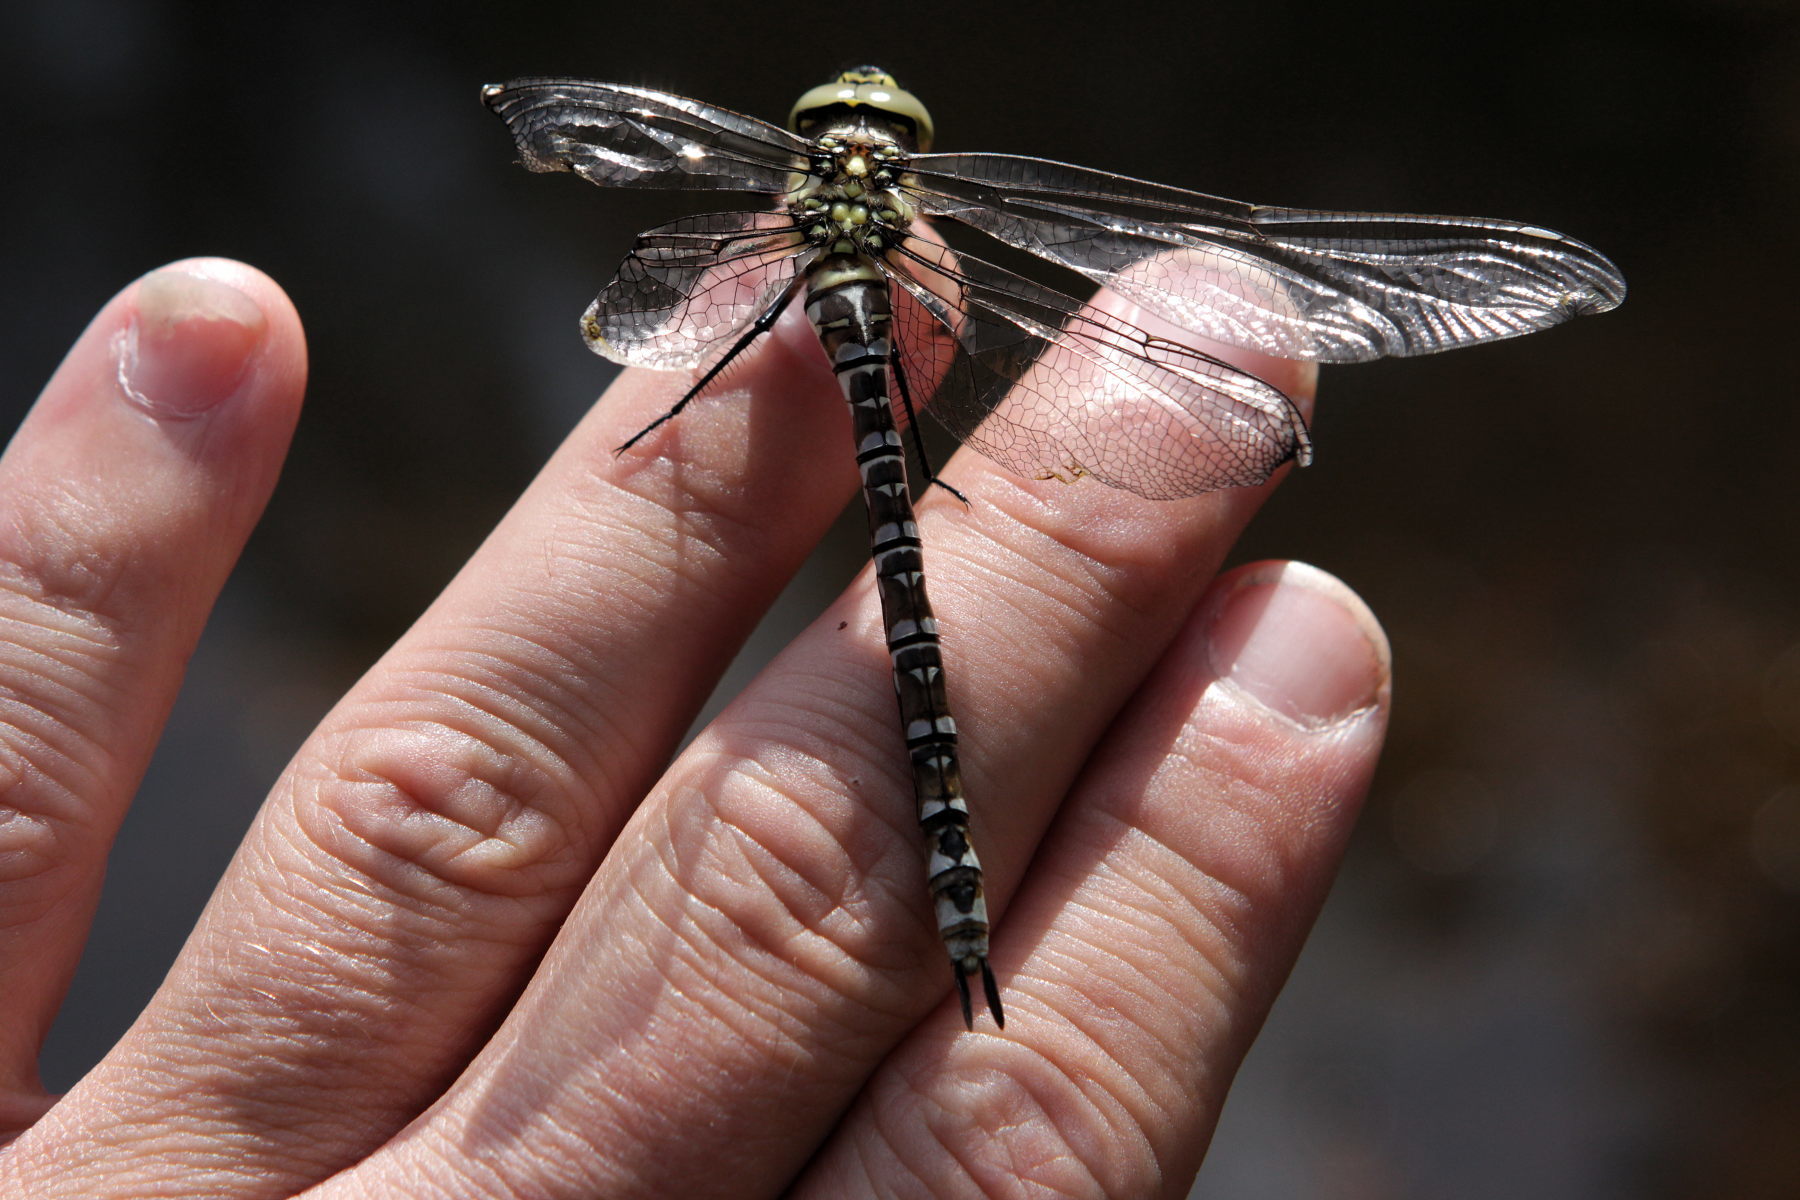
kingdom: Animalia
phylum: Arthropoda
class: Insecta
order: Odonata
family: Aeshnidae
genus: Aeshna
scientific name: Aeshna cyanea
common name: Southern hawker
